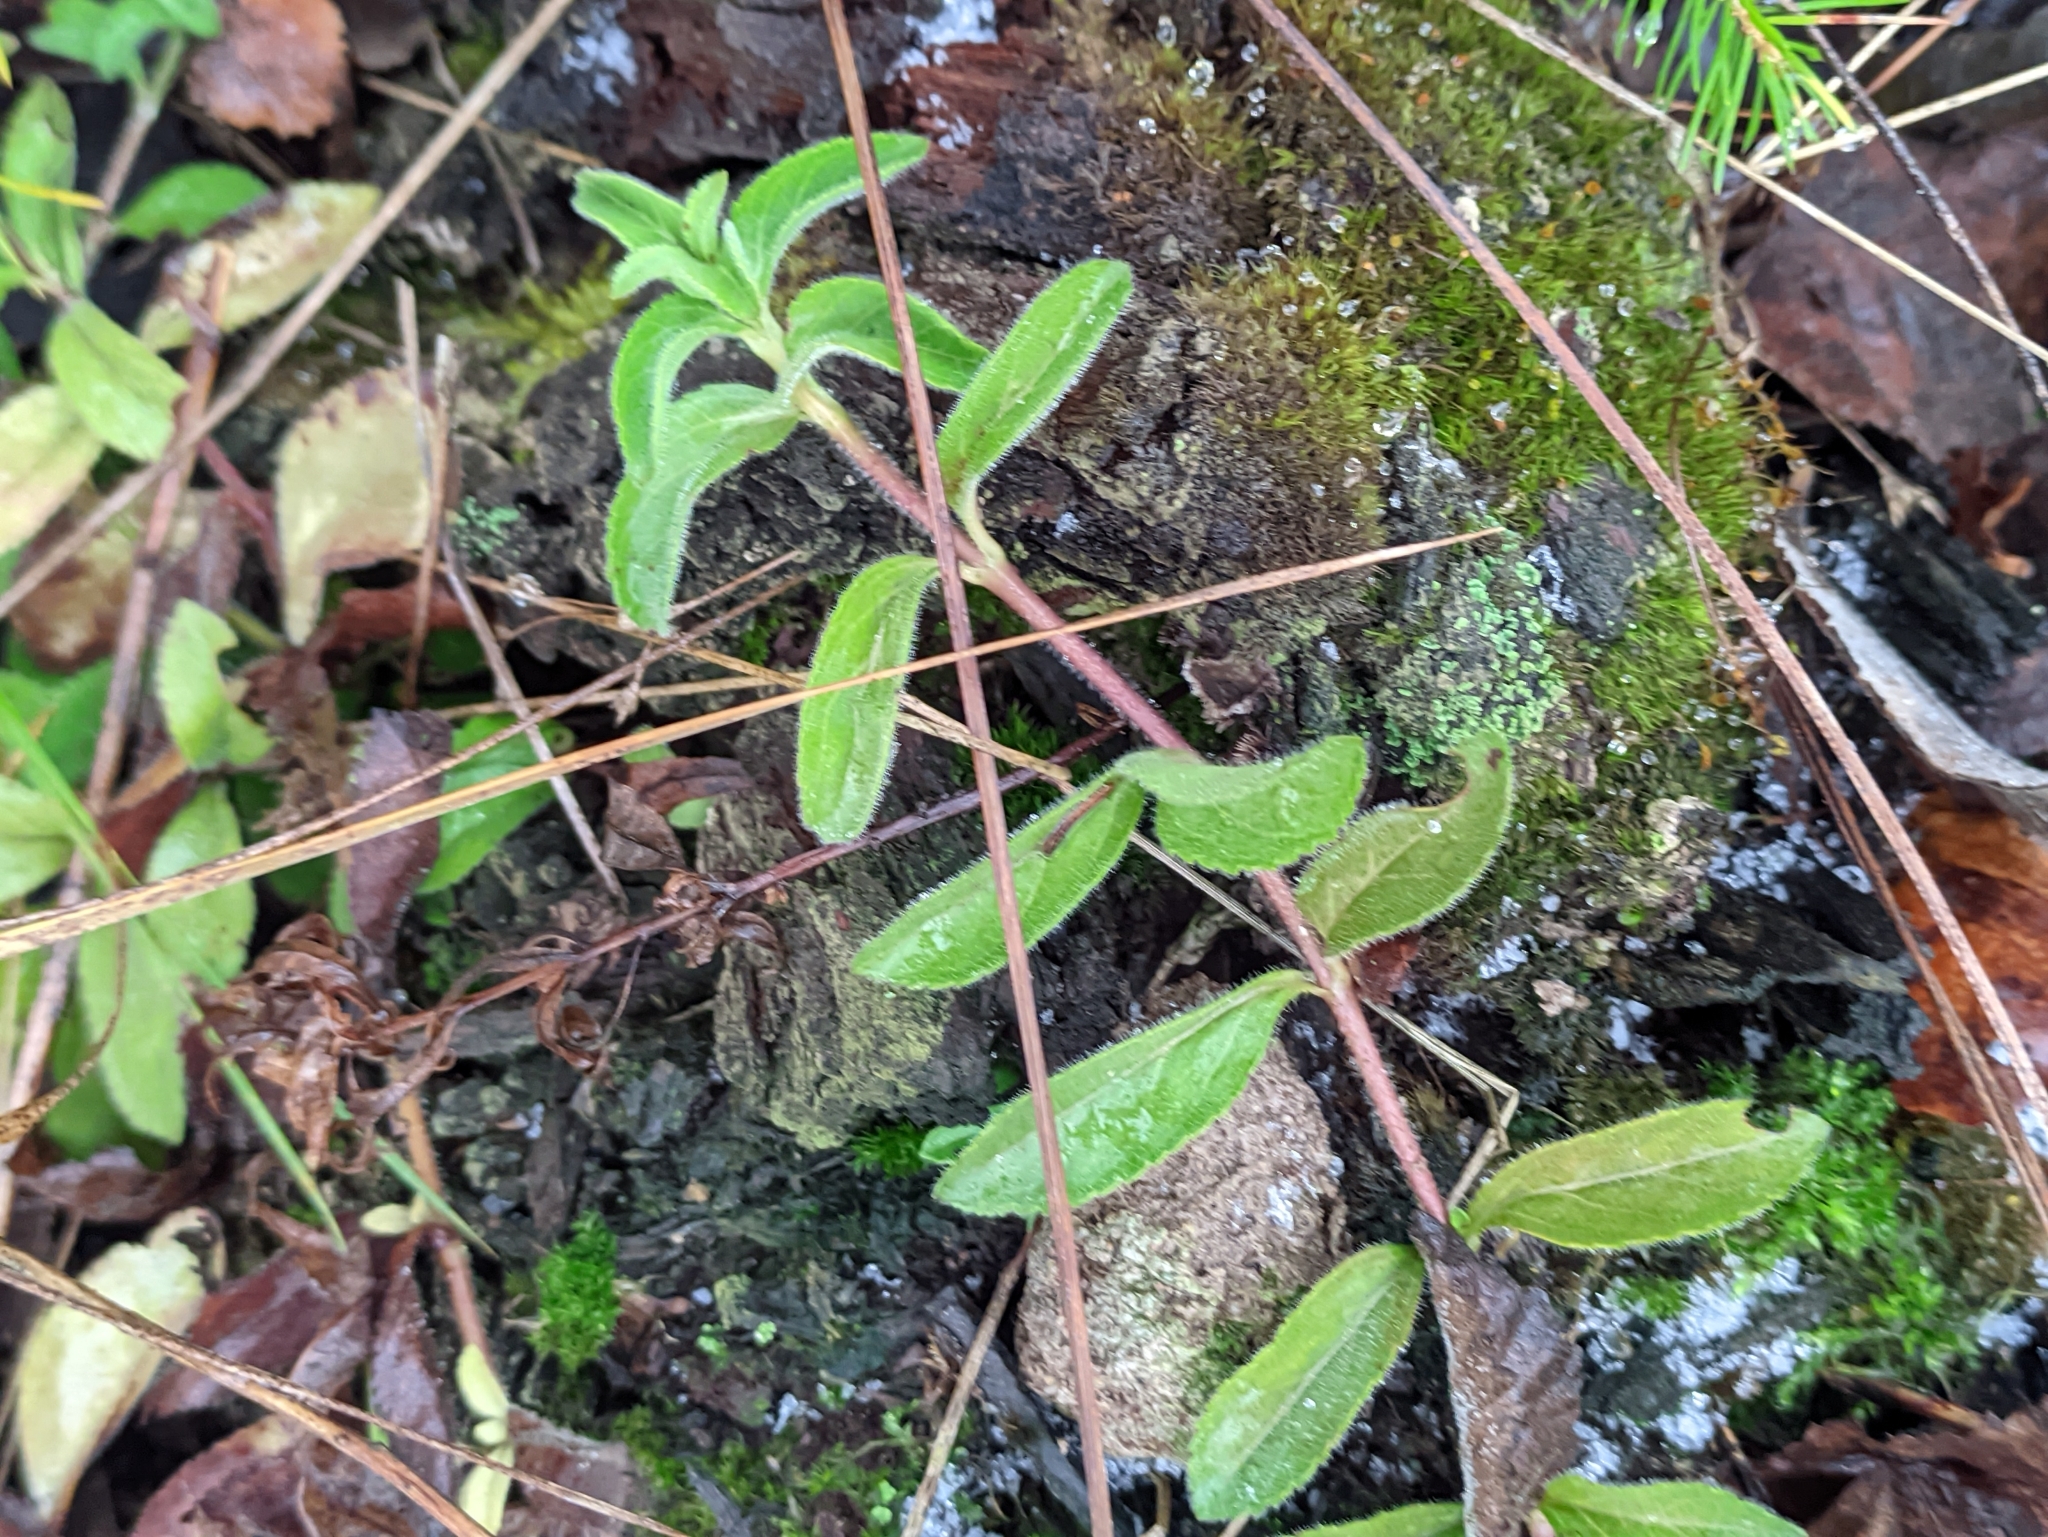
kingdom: Plantae
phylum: Tracheophyta
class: Magnoliopsida
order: Lamiales
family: Plantaginaceae
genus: Veronica
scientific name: Veronica officinalis
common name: Common speedwell
